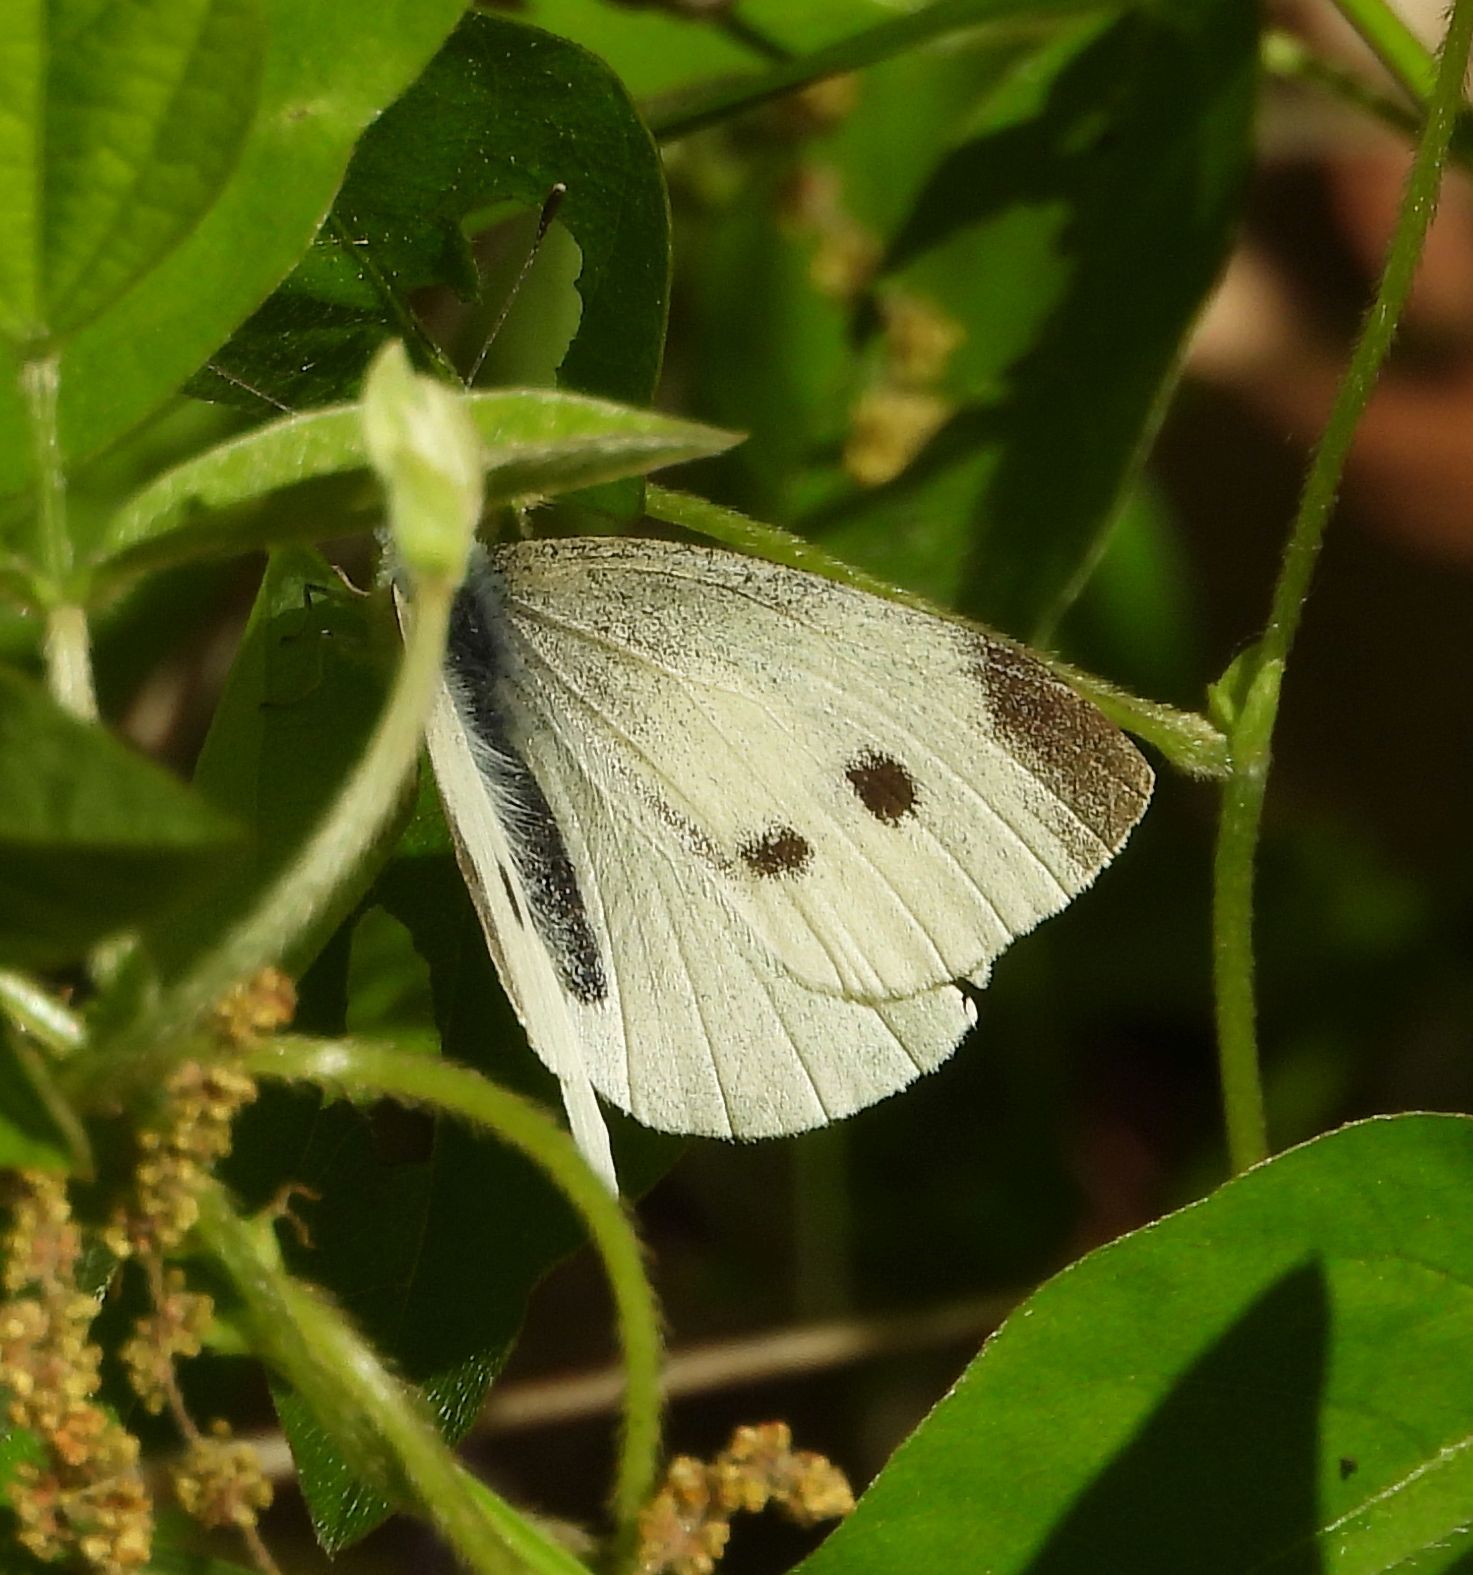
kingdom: Animalia
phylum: Arthropoda
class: Insecta
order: Lepidoptera
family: Pieridae
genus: Pieris
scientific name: Pieris rapae
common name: Small white
